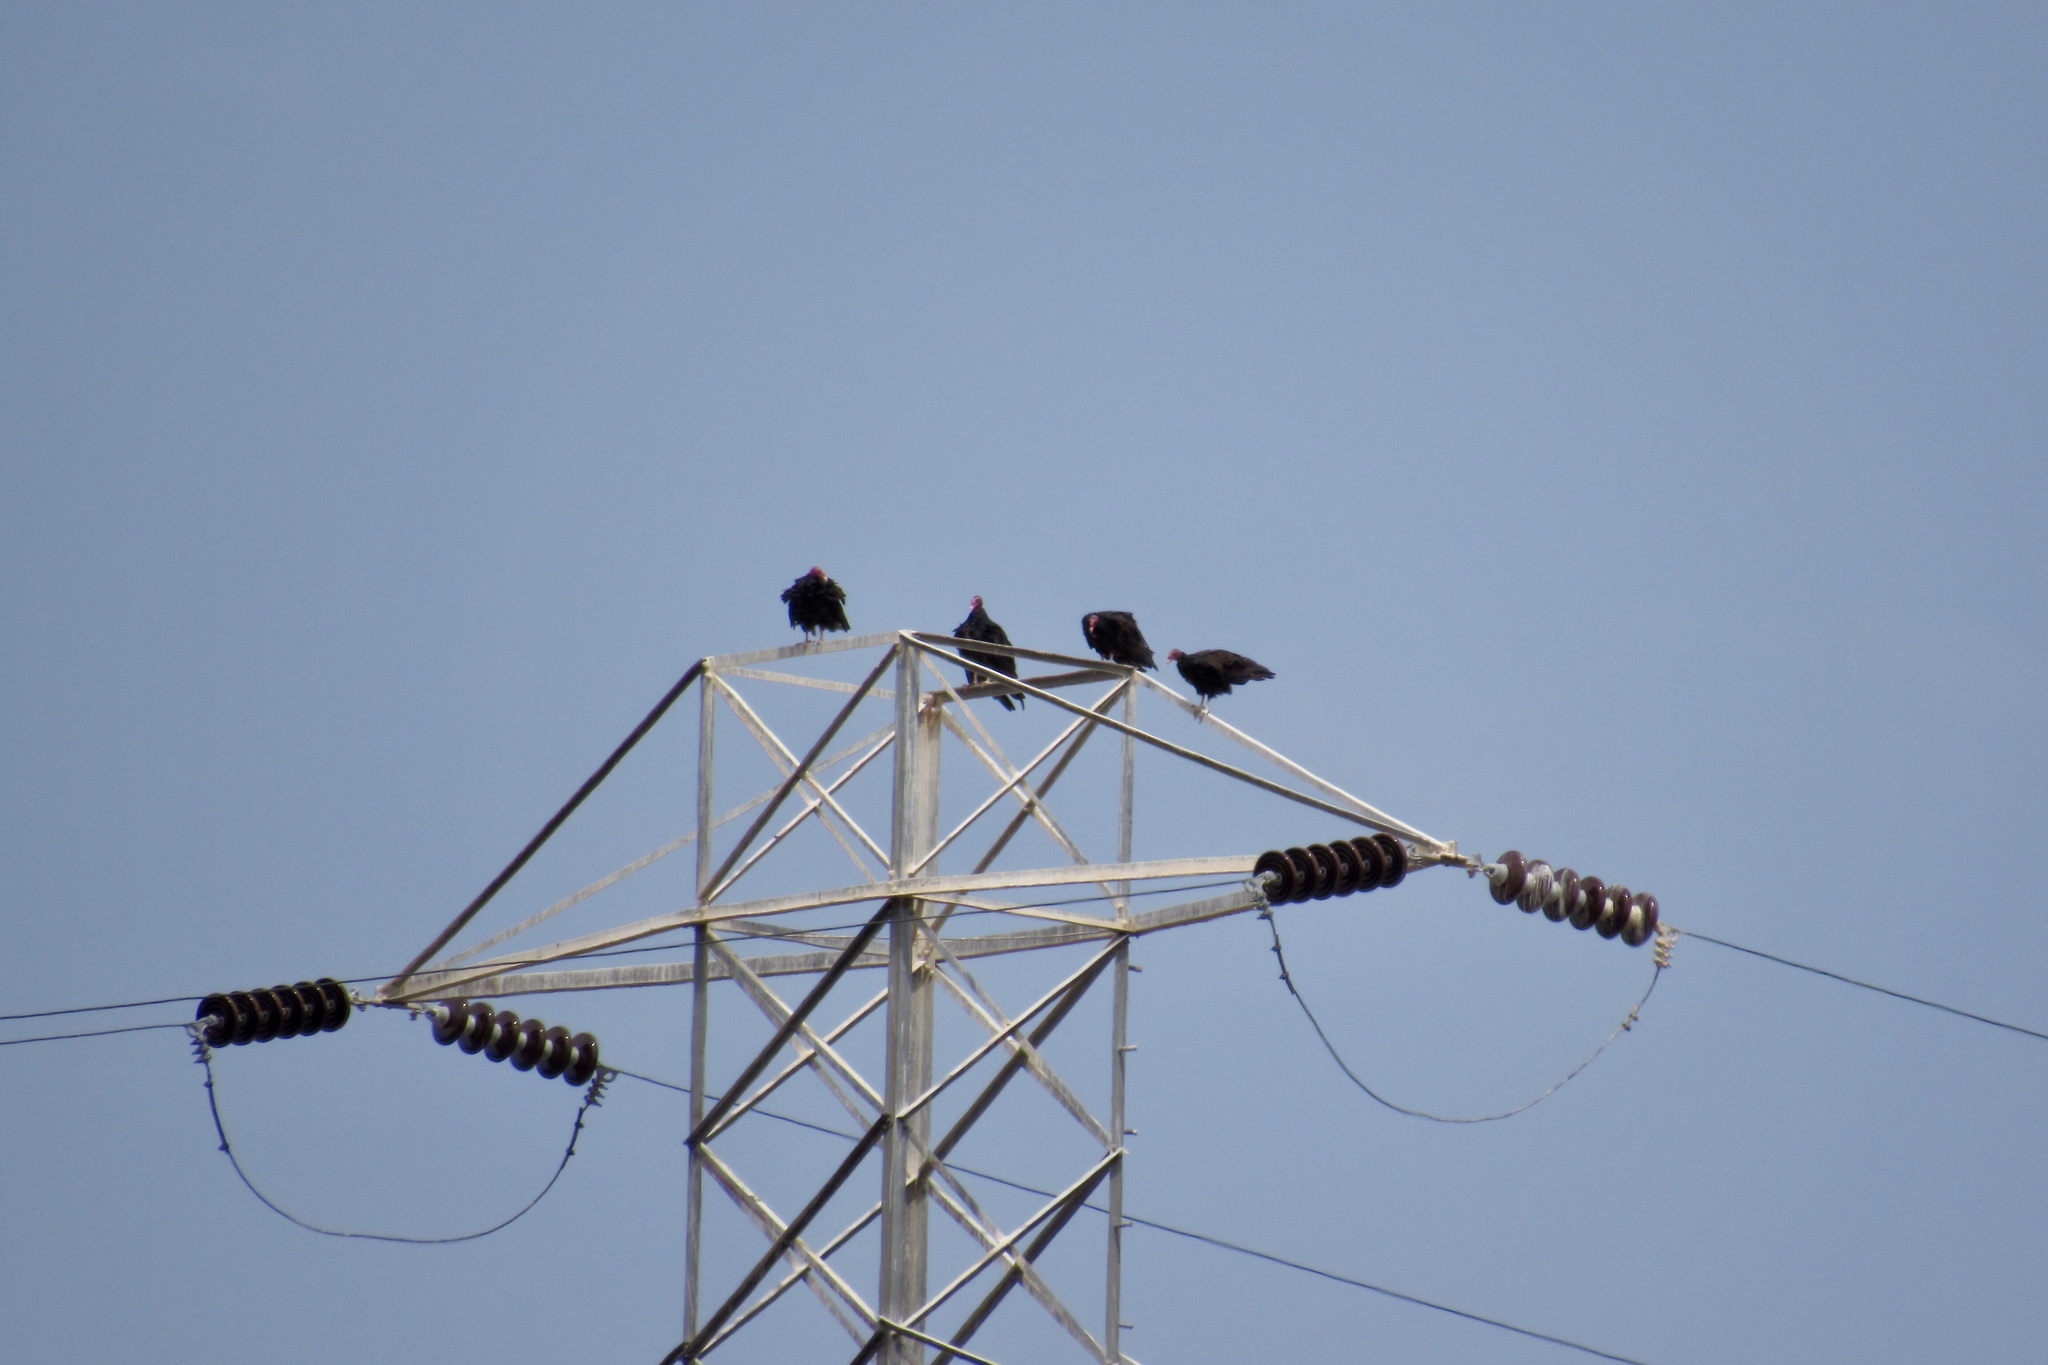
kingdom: Animalia
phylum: Chordata
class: Aves
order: Accipitriformes
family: Cathartidae
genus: Cathartes
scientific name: Cathartes aura
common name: Turkey vulture
